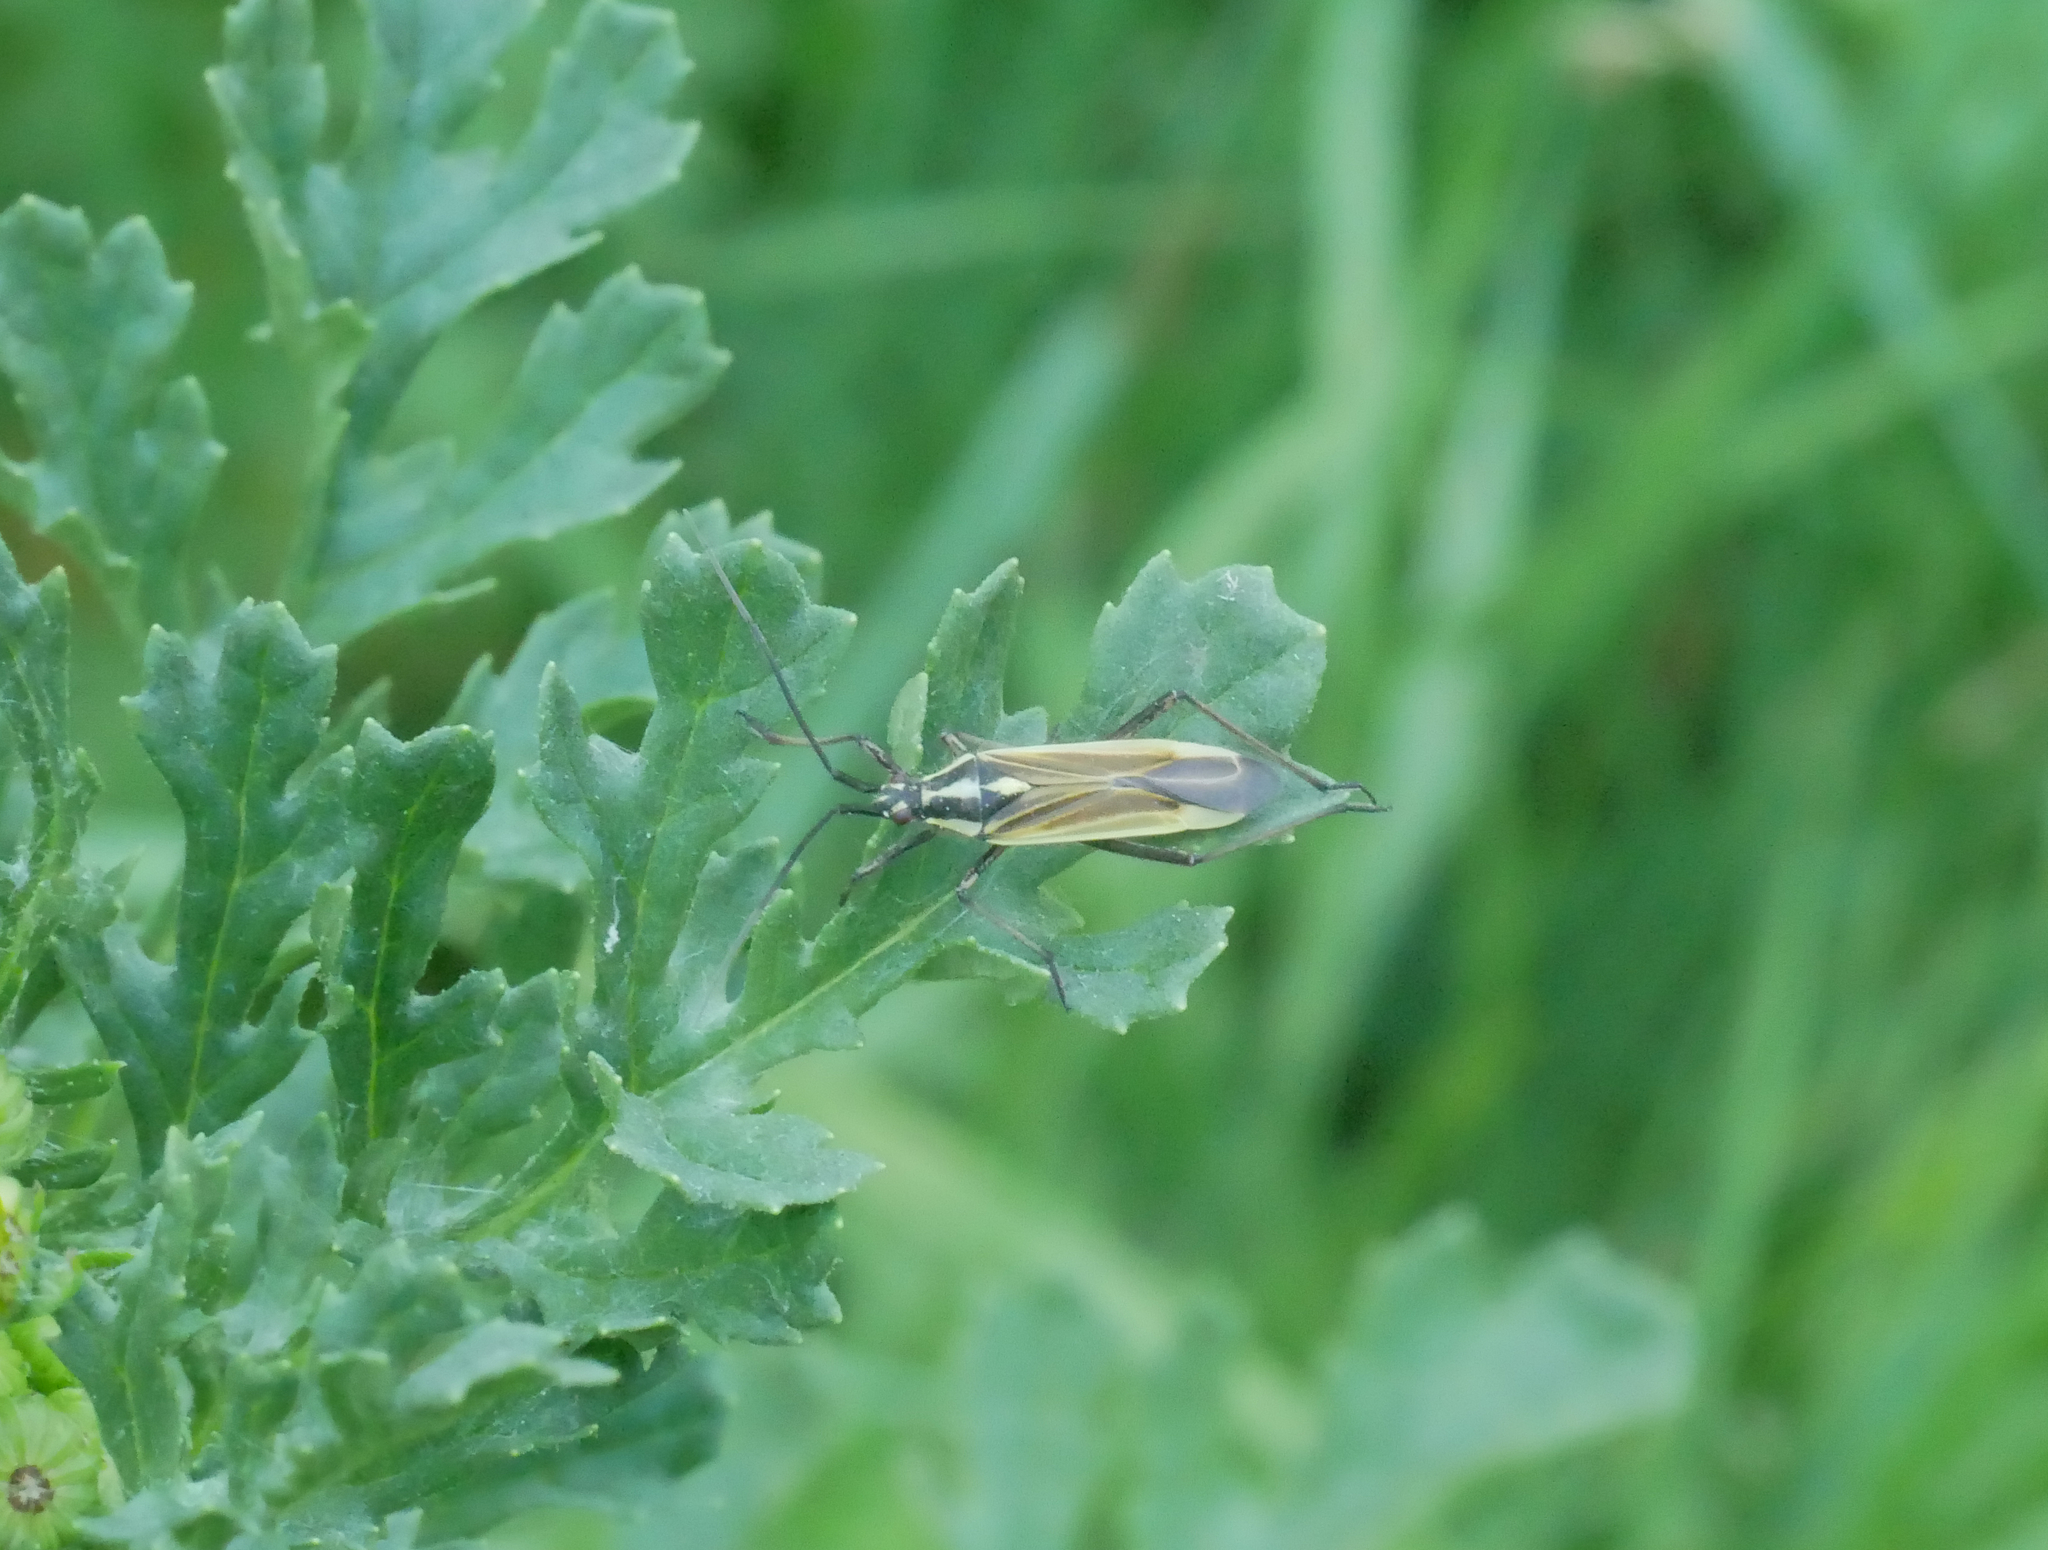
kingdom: Animalia
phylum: Arthropoda
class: Insecta
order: Hemiptera
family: Miridae
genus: Leptopterna
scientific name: Leptopterna dolabrata
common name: Meadow plant bug
